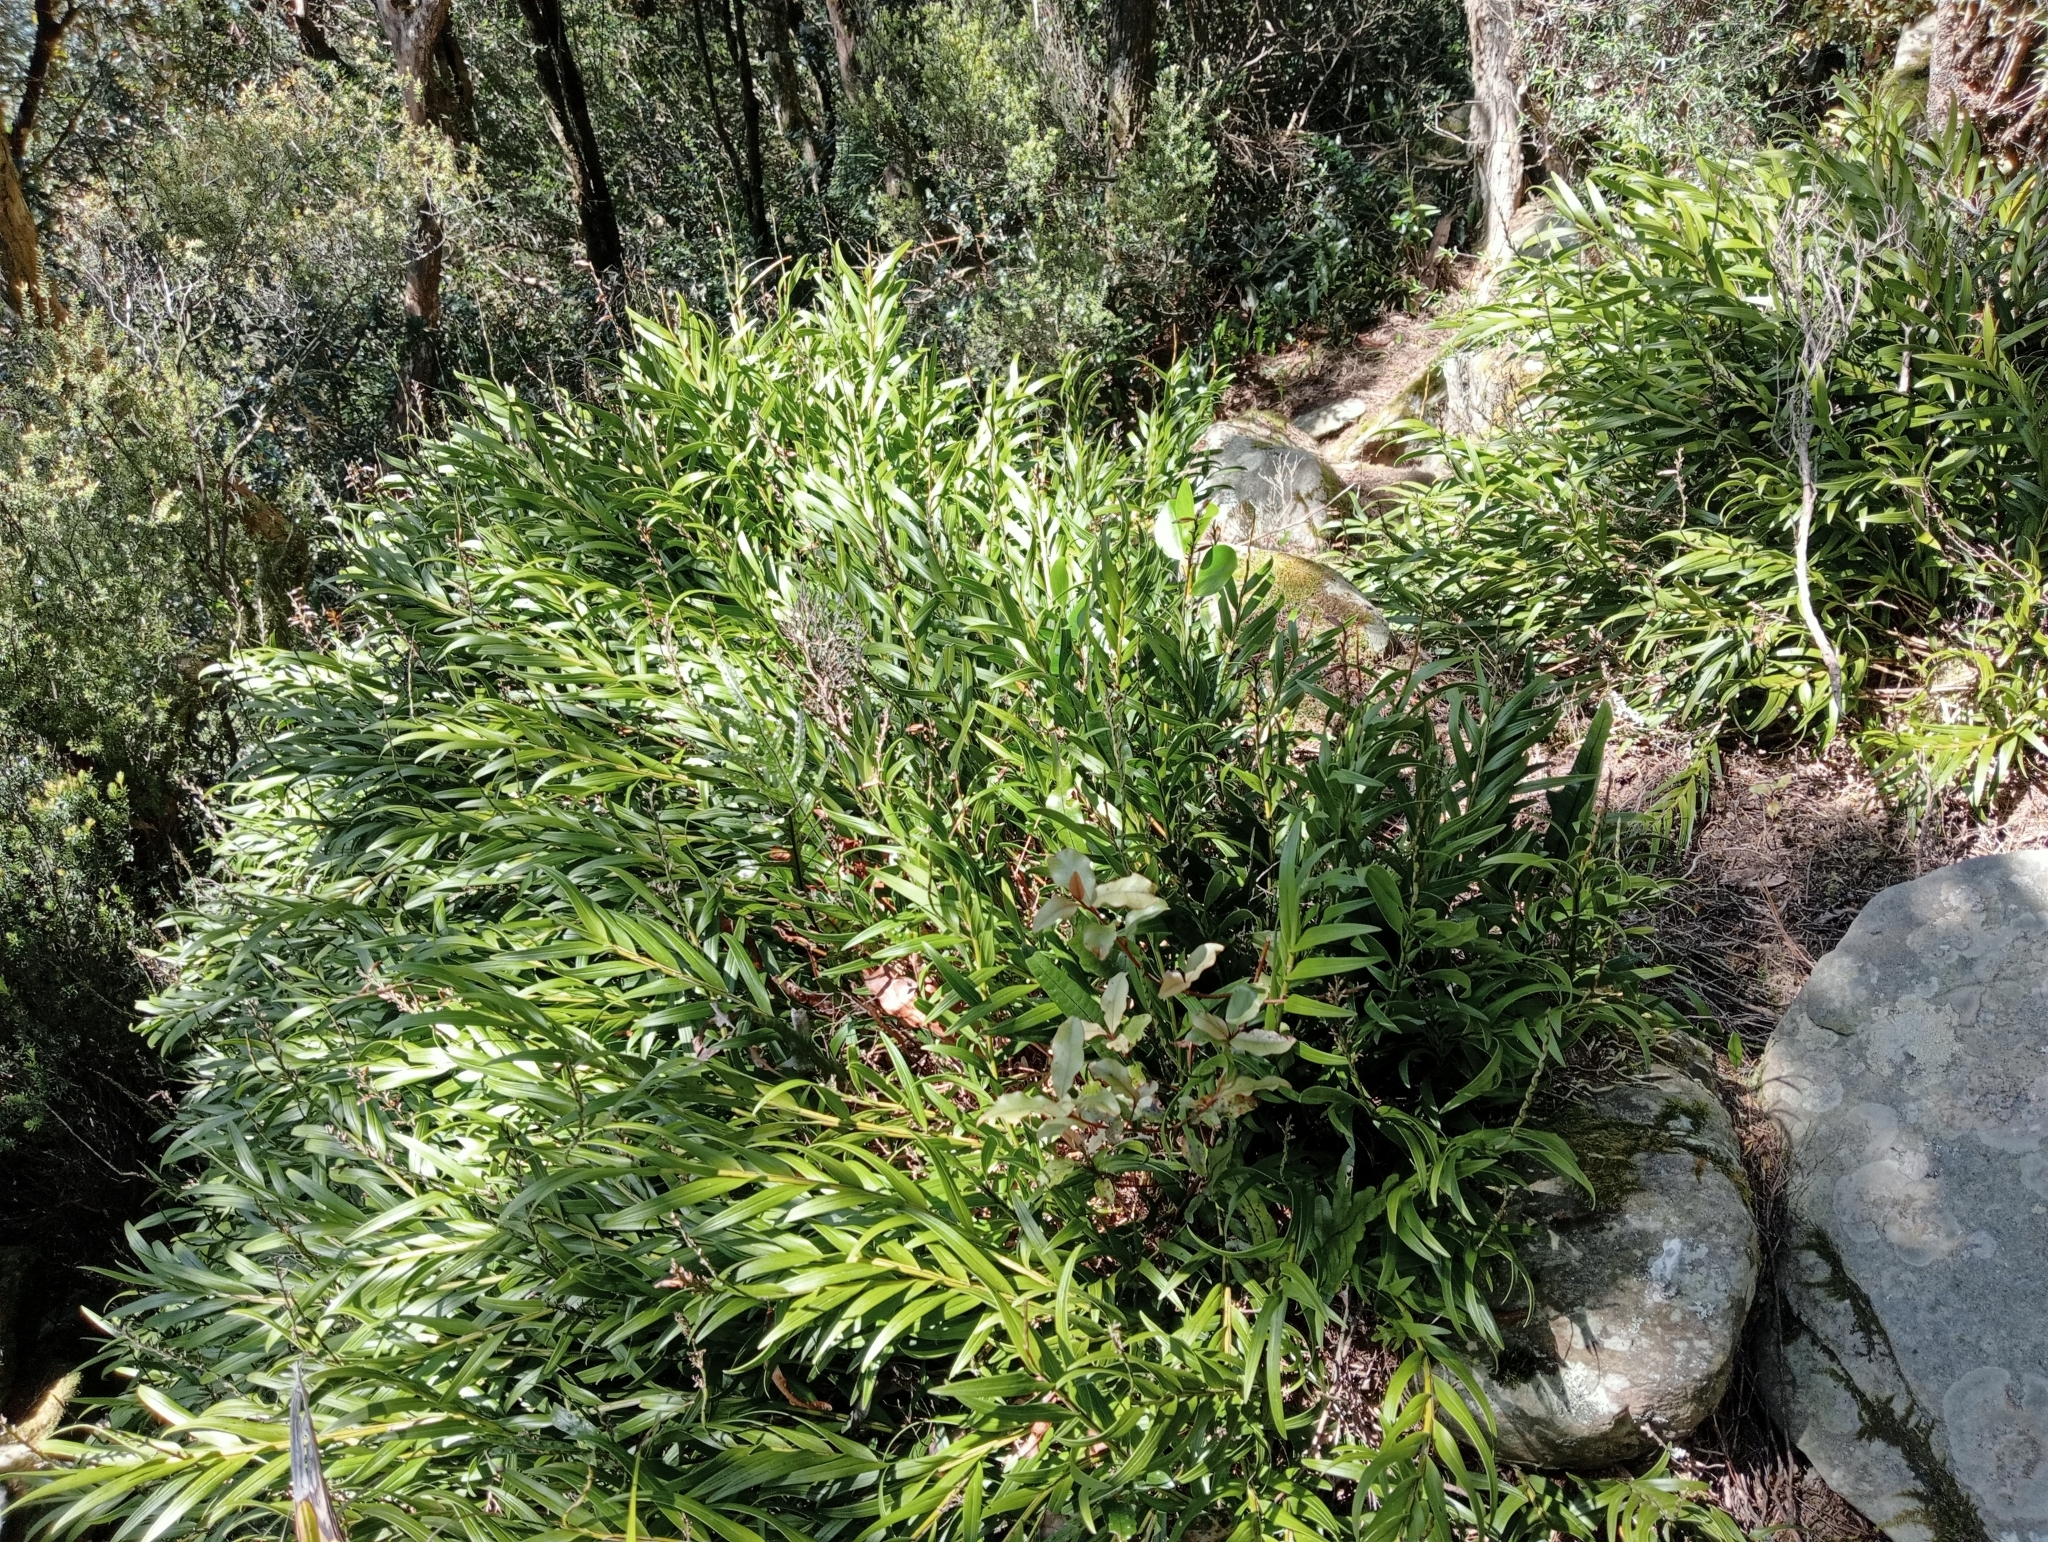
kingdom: Plantae
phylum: Tracheophyta
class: Liliopsida
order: Asparagales
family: Orchidaceae
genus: Earina
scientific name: Earina autumnalis
